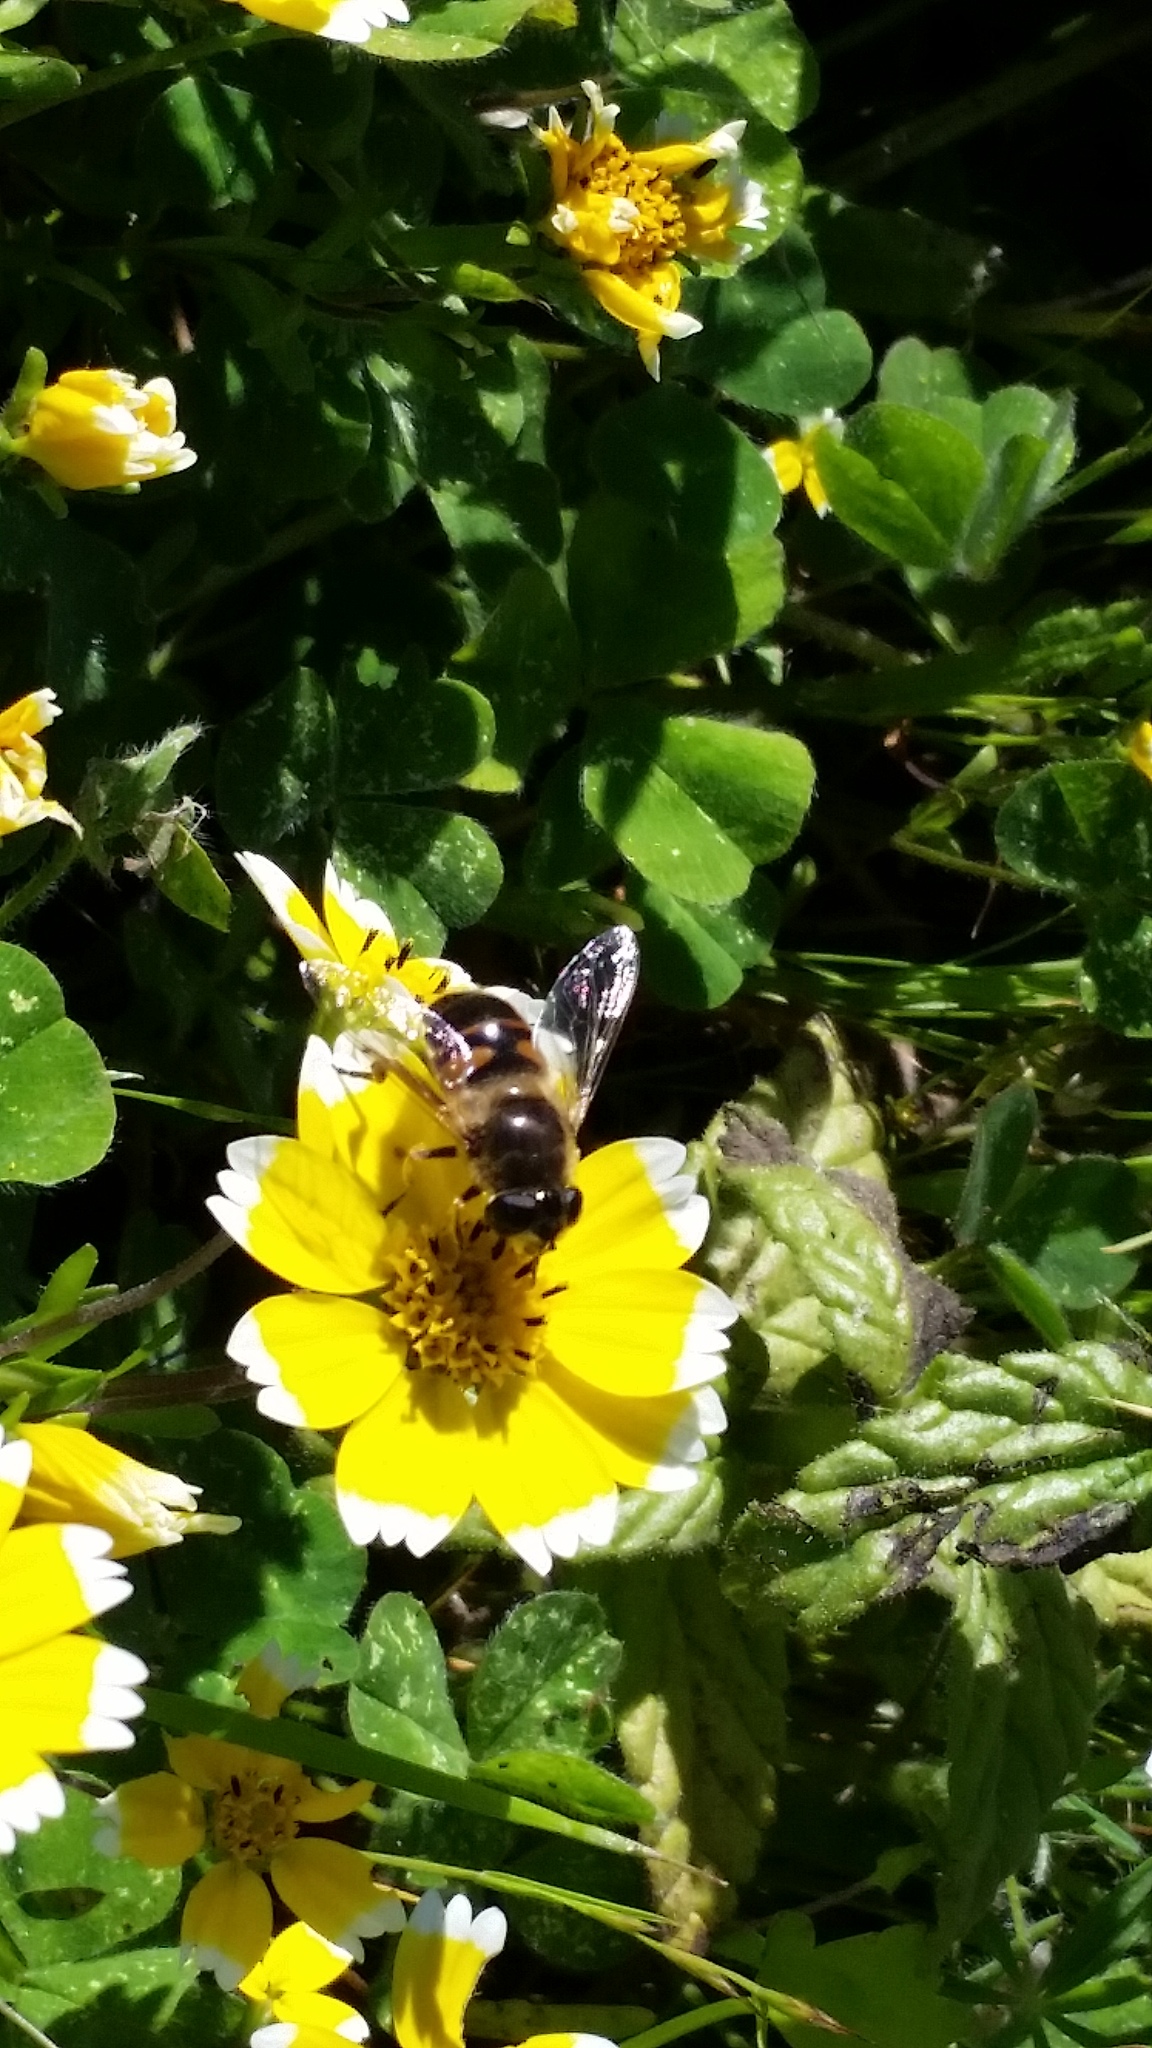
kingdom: Animalia
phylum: Arthropoda
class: Insecta
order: Diptera
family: Syrphidae
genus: Eristalis
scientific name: Eristalis tenax
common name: Drone fly
